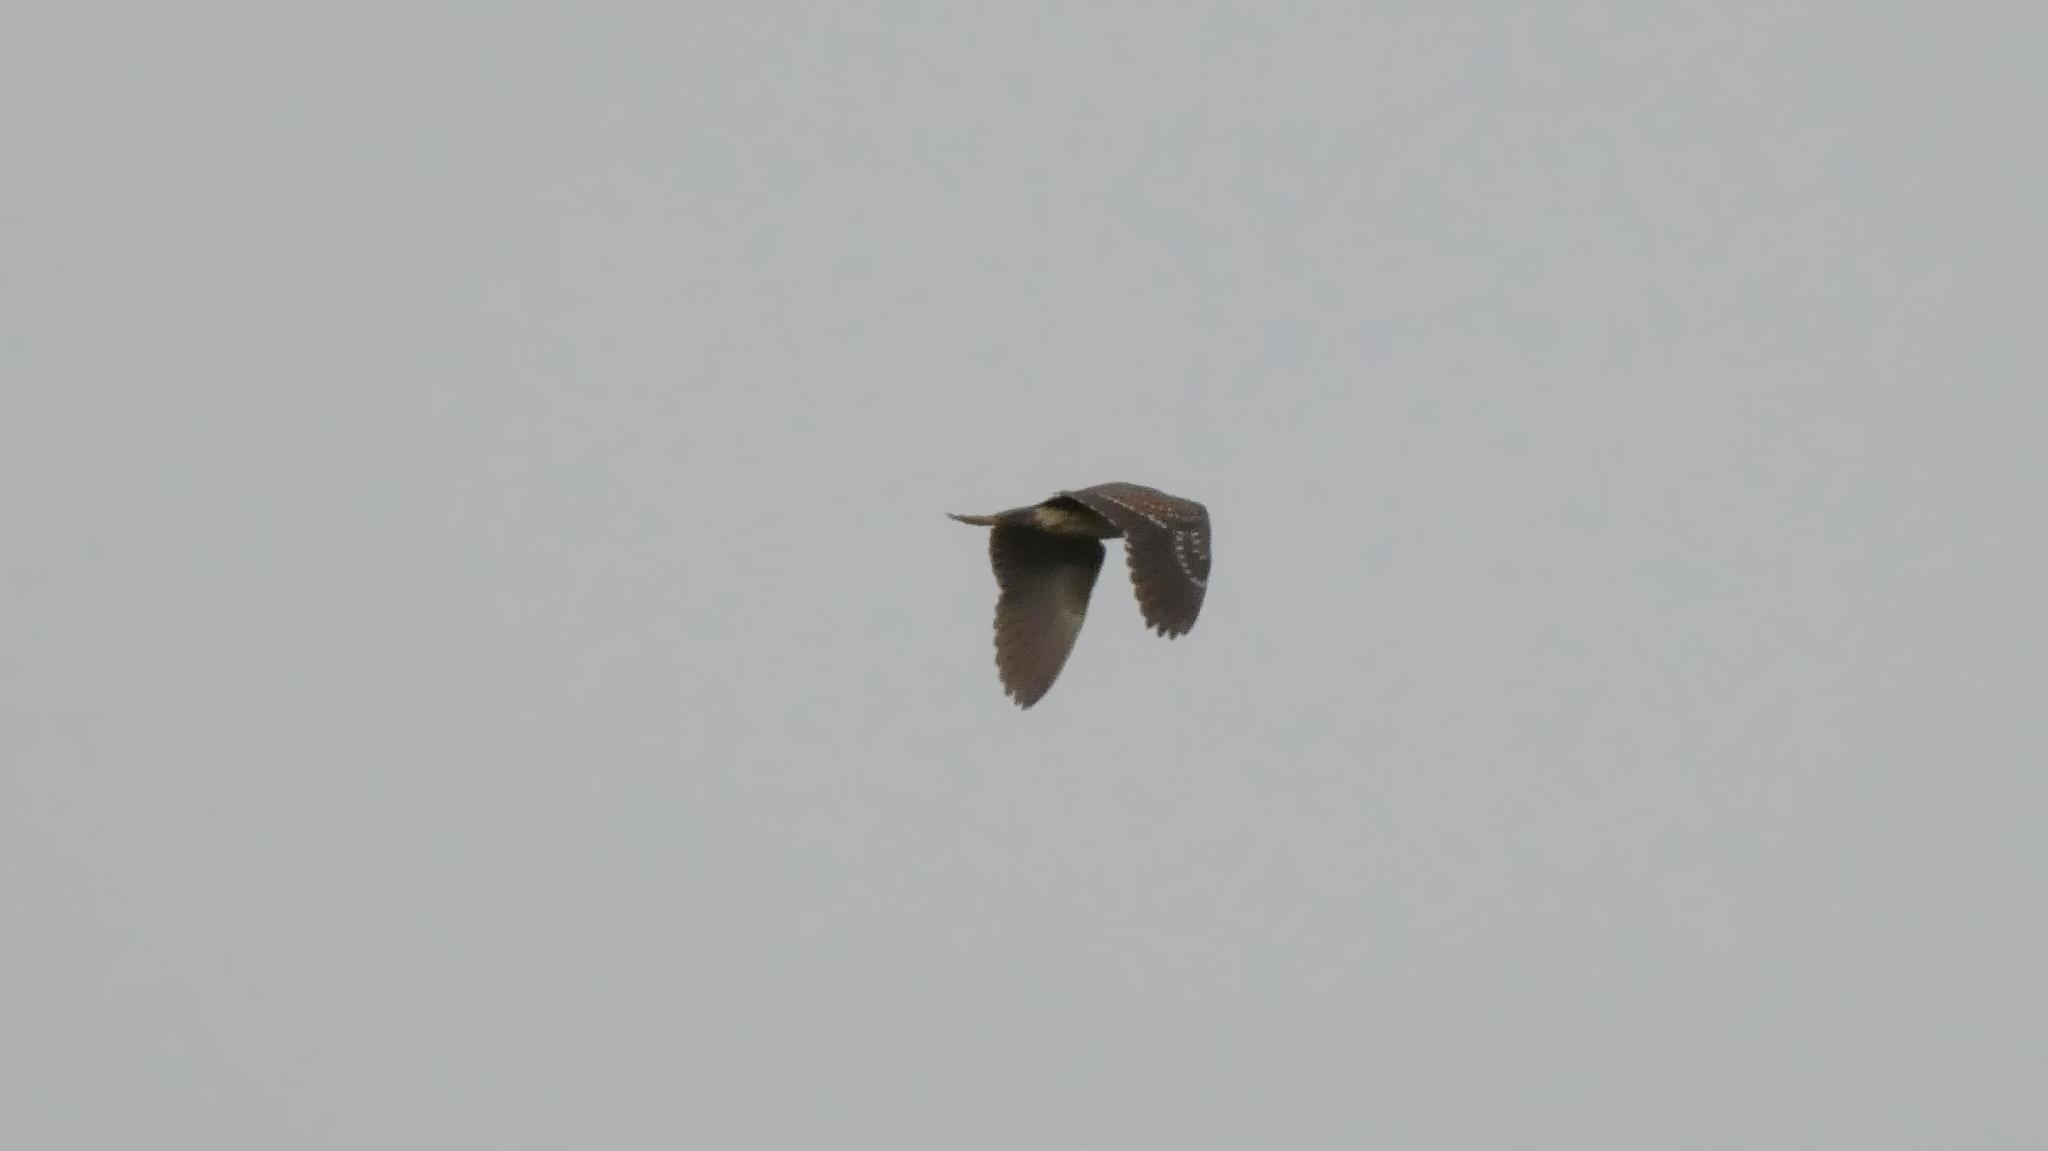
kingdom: Animalia
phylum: Chordata
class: Aves
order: Pelecaniformes
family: Ardeidae
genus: Nycticorax
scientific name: Nycticorax nycticorax
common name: Black-crowned night heron
